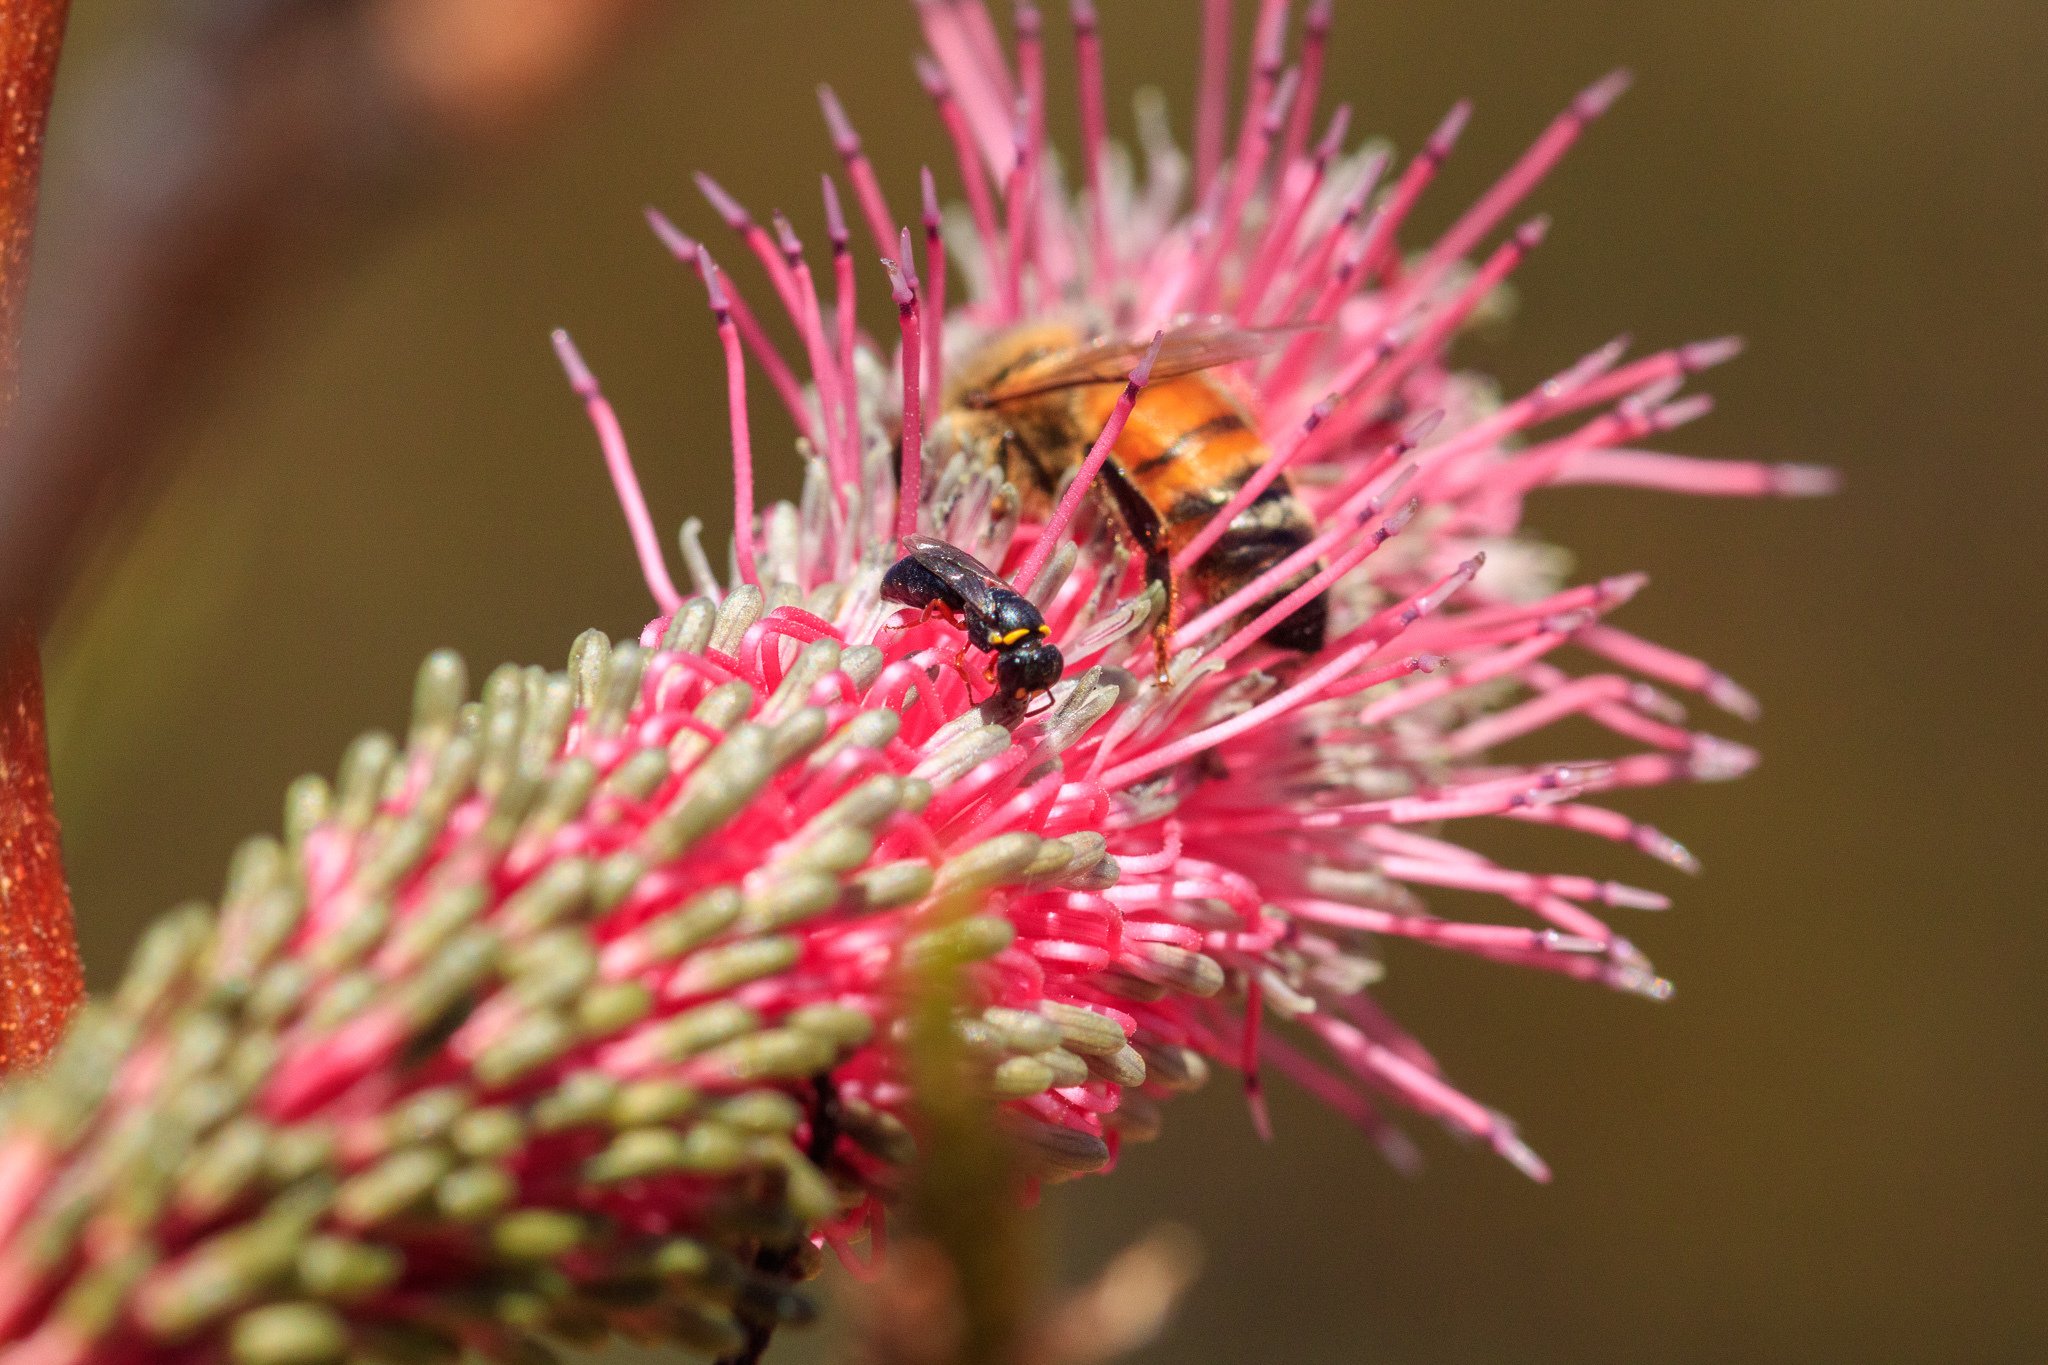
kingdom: Plantae
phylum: Tracheophyta
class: Magnoliopsida
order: Proteales
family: Proteaceae
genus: Grevillea
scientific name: Grevillea petrophiloides
